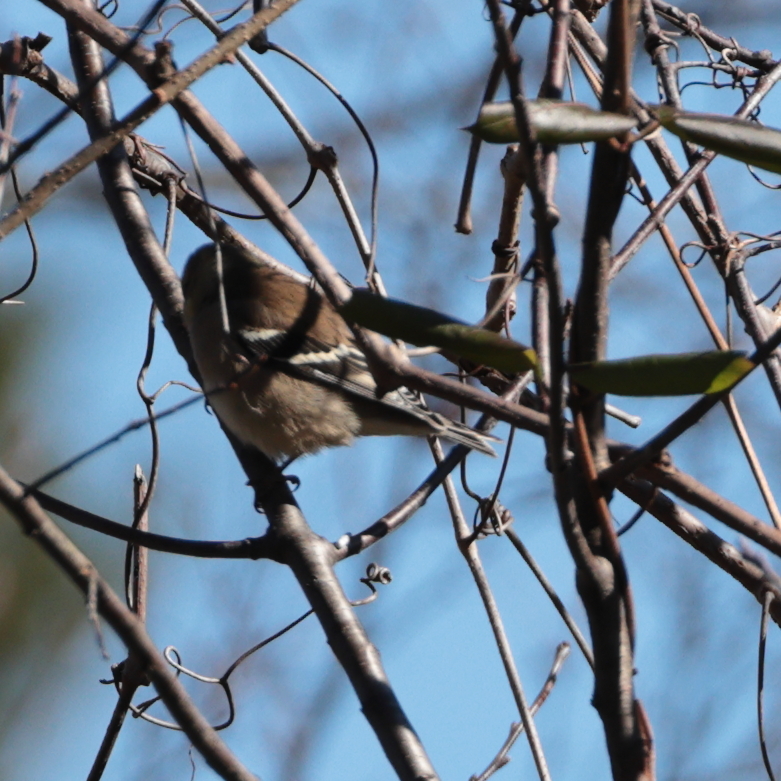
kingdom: Animalia
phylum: Chordata
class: Aves
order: Passeriformes
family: Fringillidae
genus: Spinus
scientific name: Spinus tristis
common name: American goldfinch
